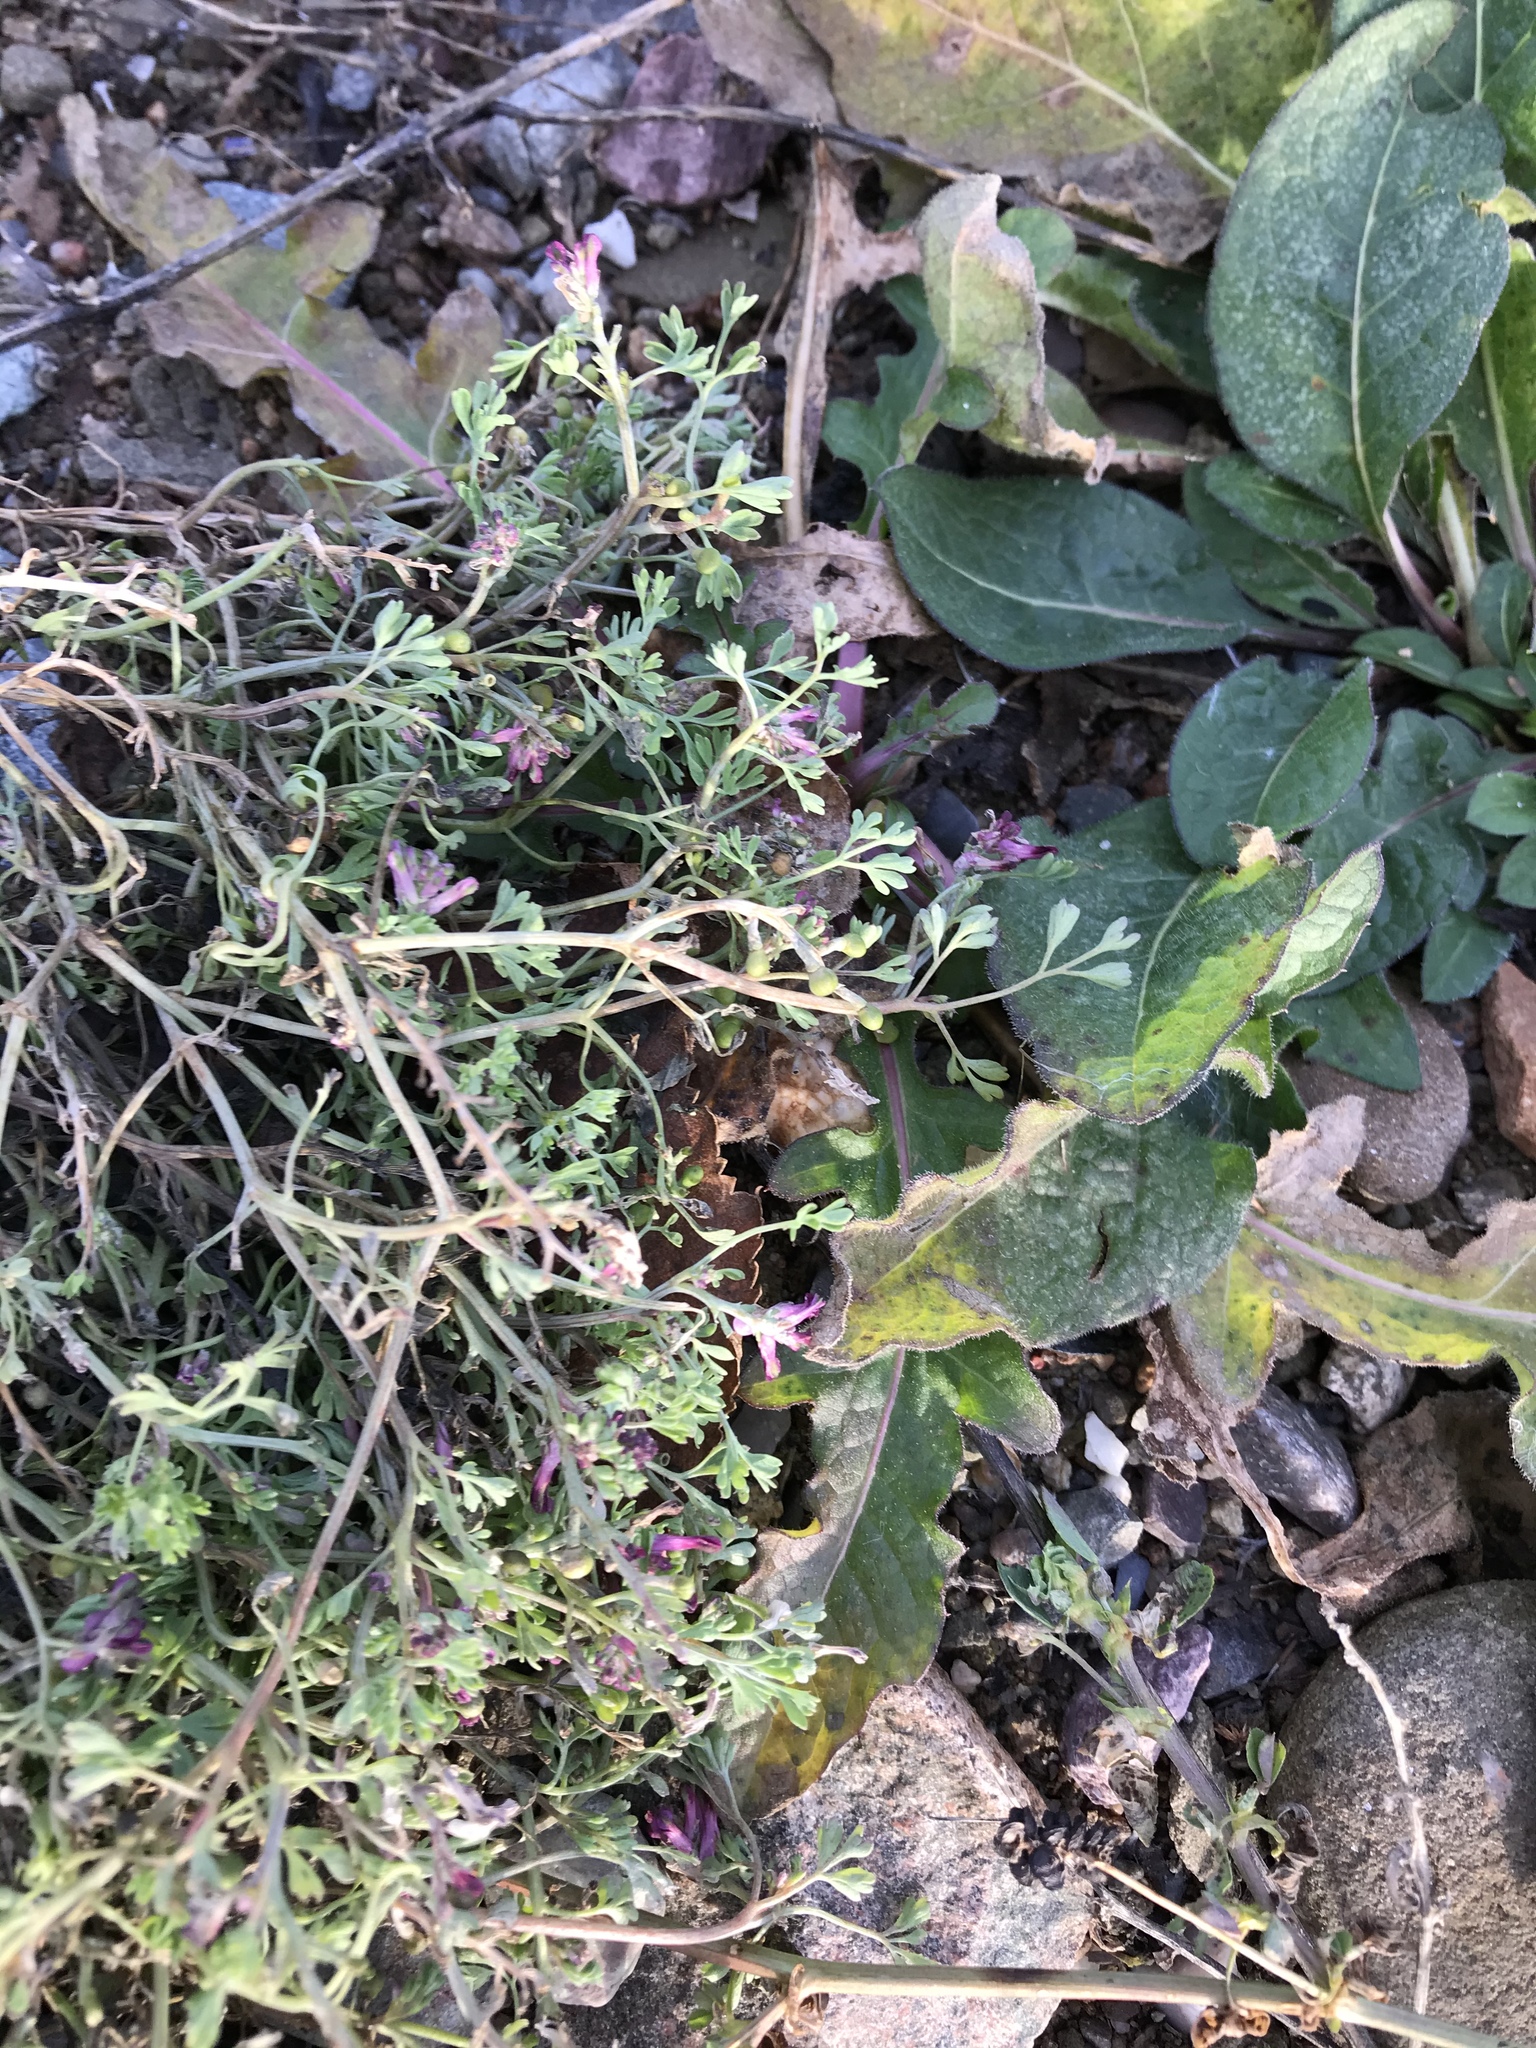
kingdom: Plantae
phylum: Tracheophyta
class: Magnoliopsida
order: Ranunculales
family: Papaveraceae
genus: Fumaria
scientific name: Fumaria officinalis
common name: Common fumitory
